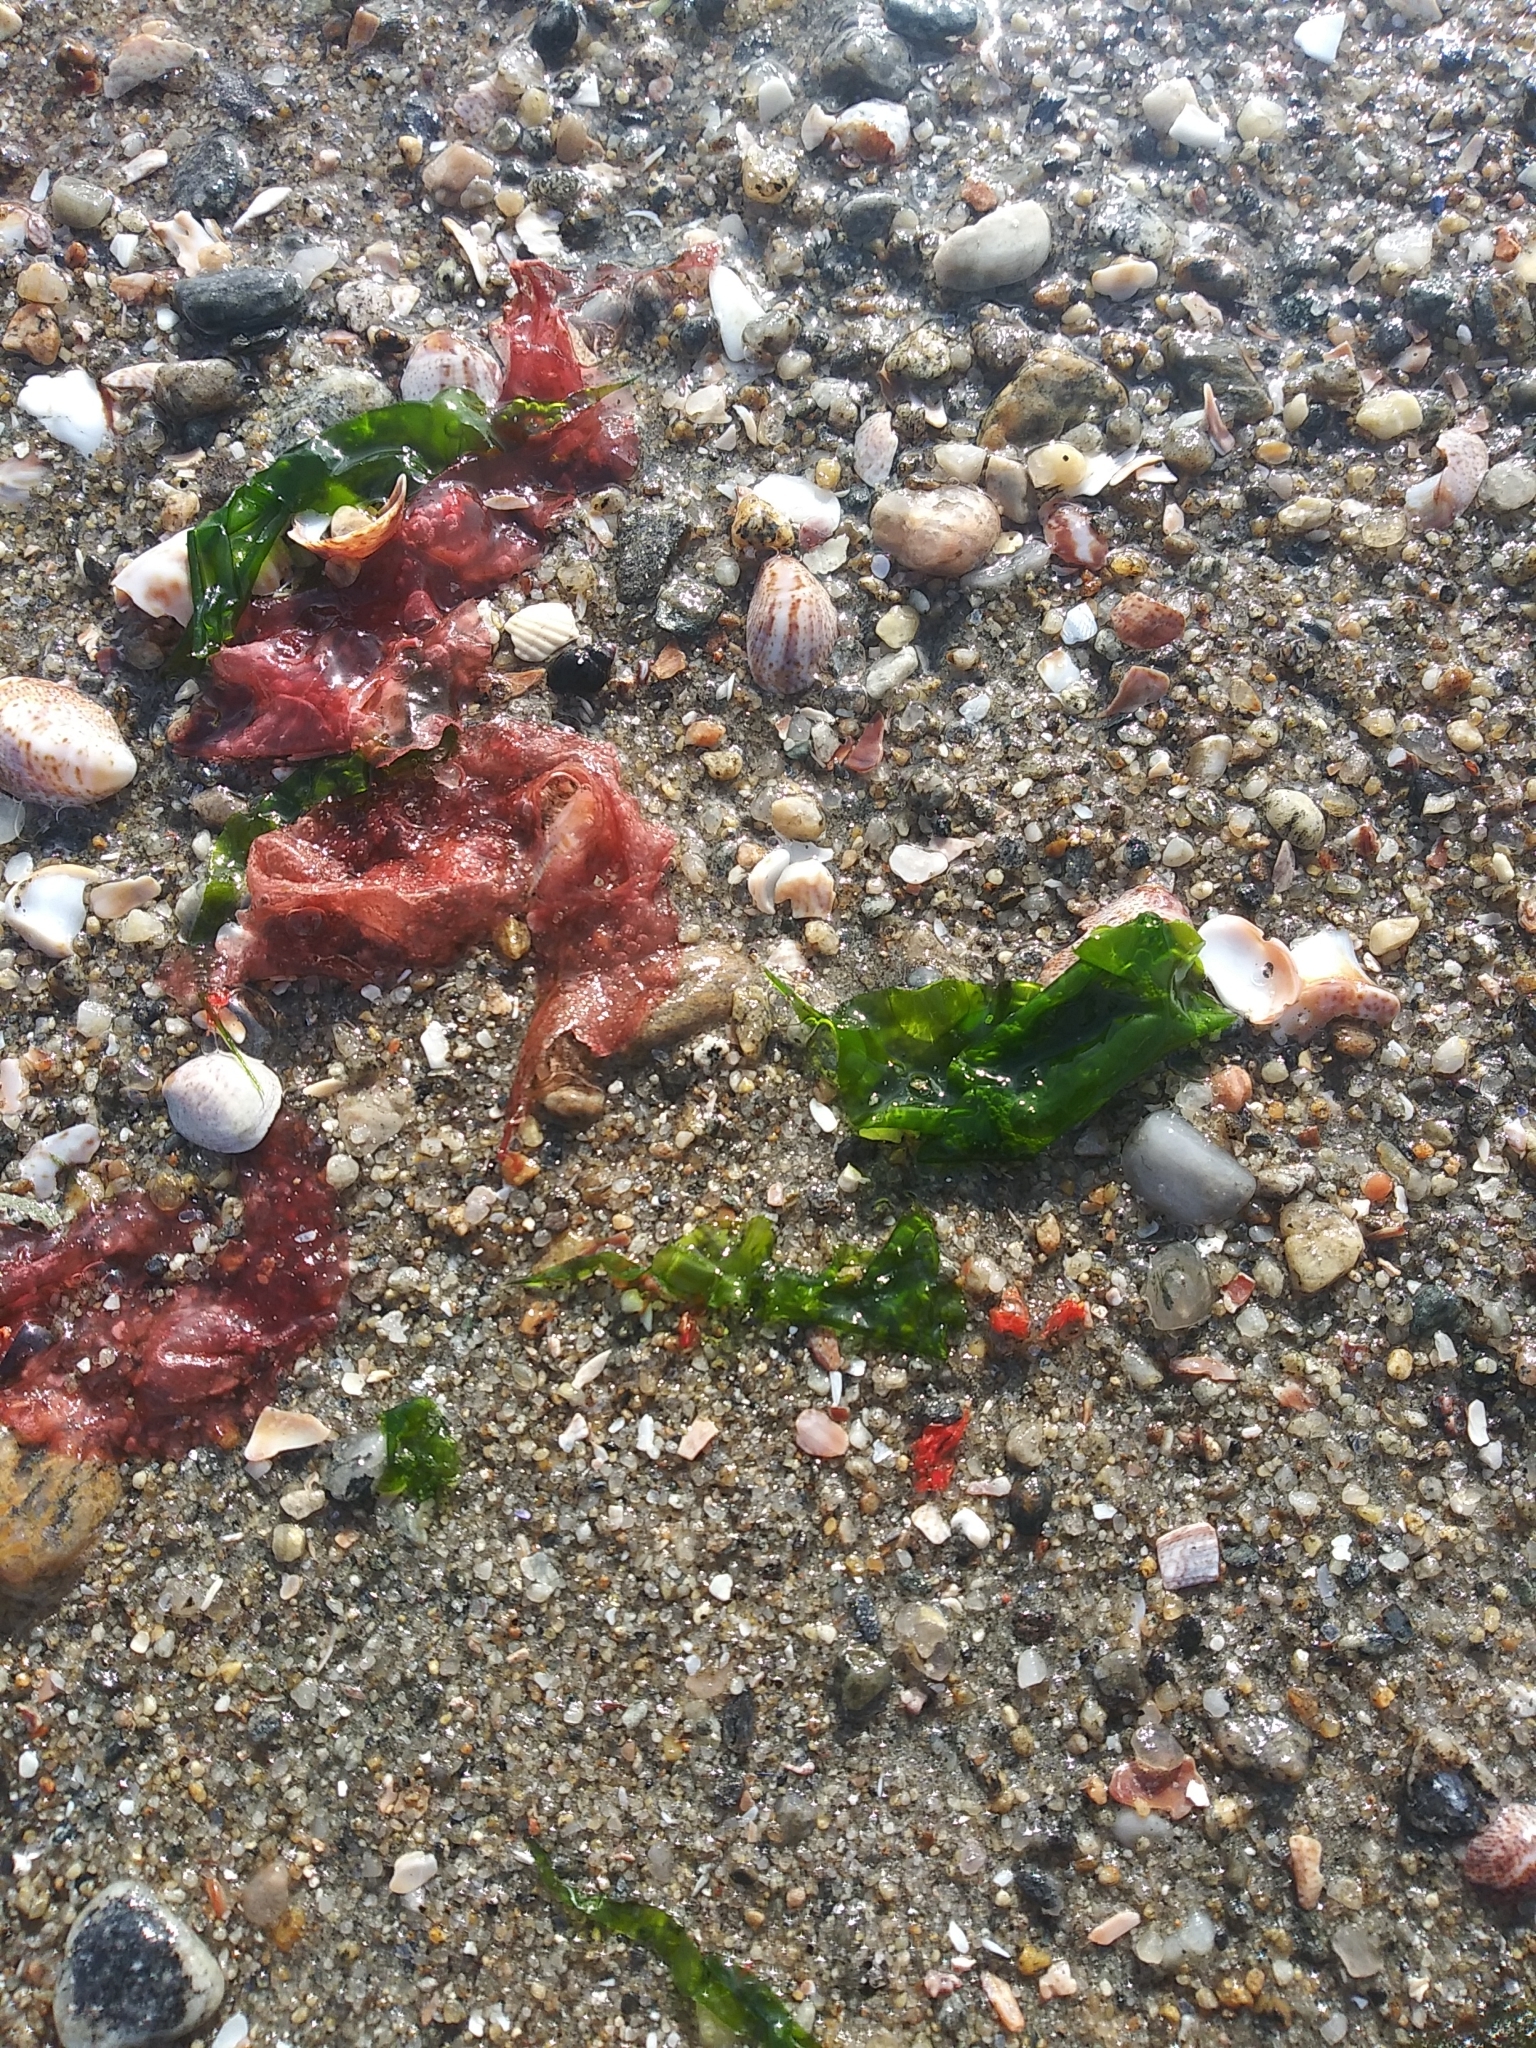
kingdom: Plantae
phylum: Chlorophyta
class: Ulvophyceae
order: Ulvales
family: Ulvaceae
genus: Ulva
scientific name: Ulva lactuca
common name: Sea lettuce
